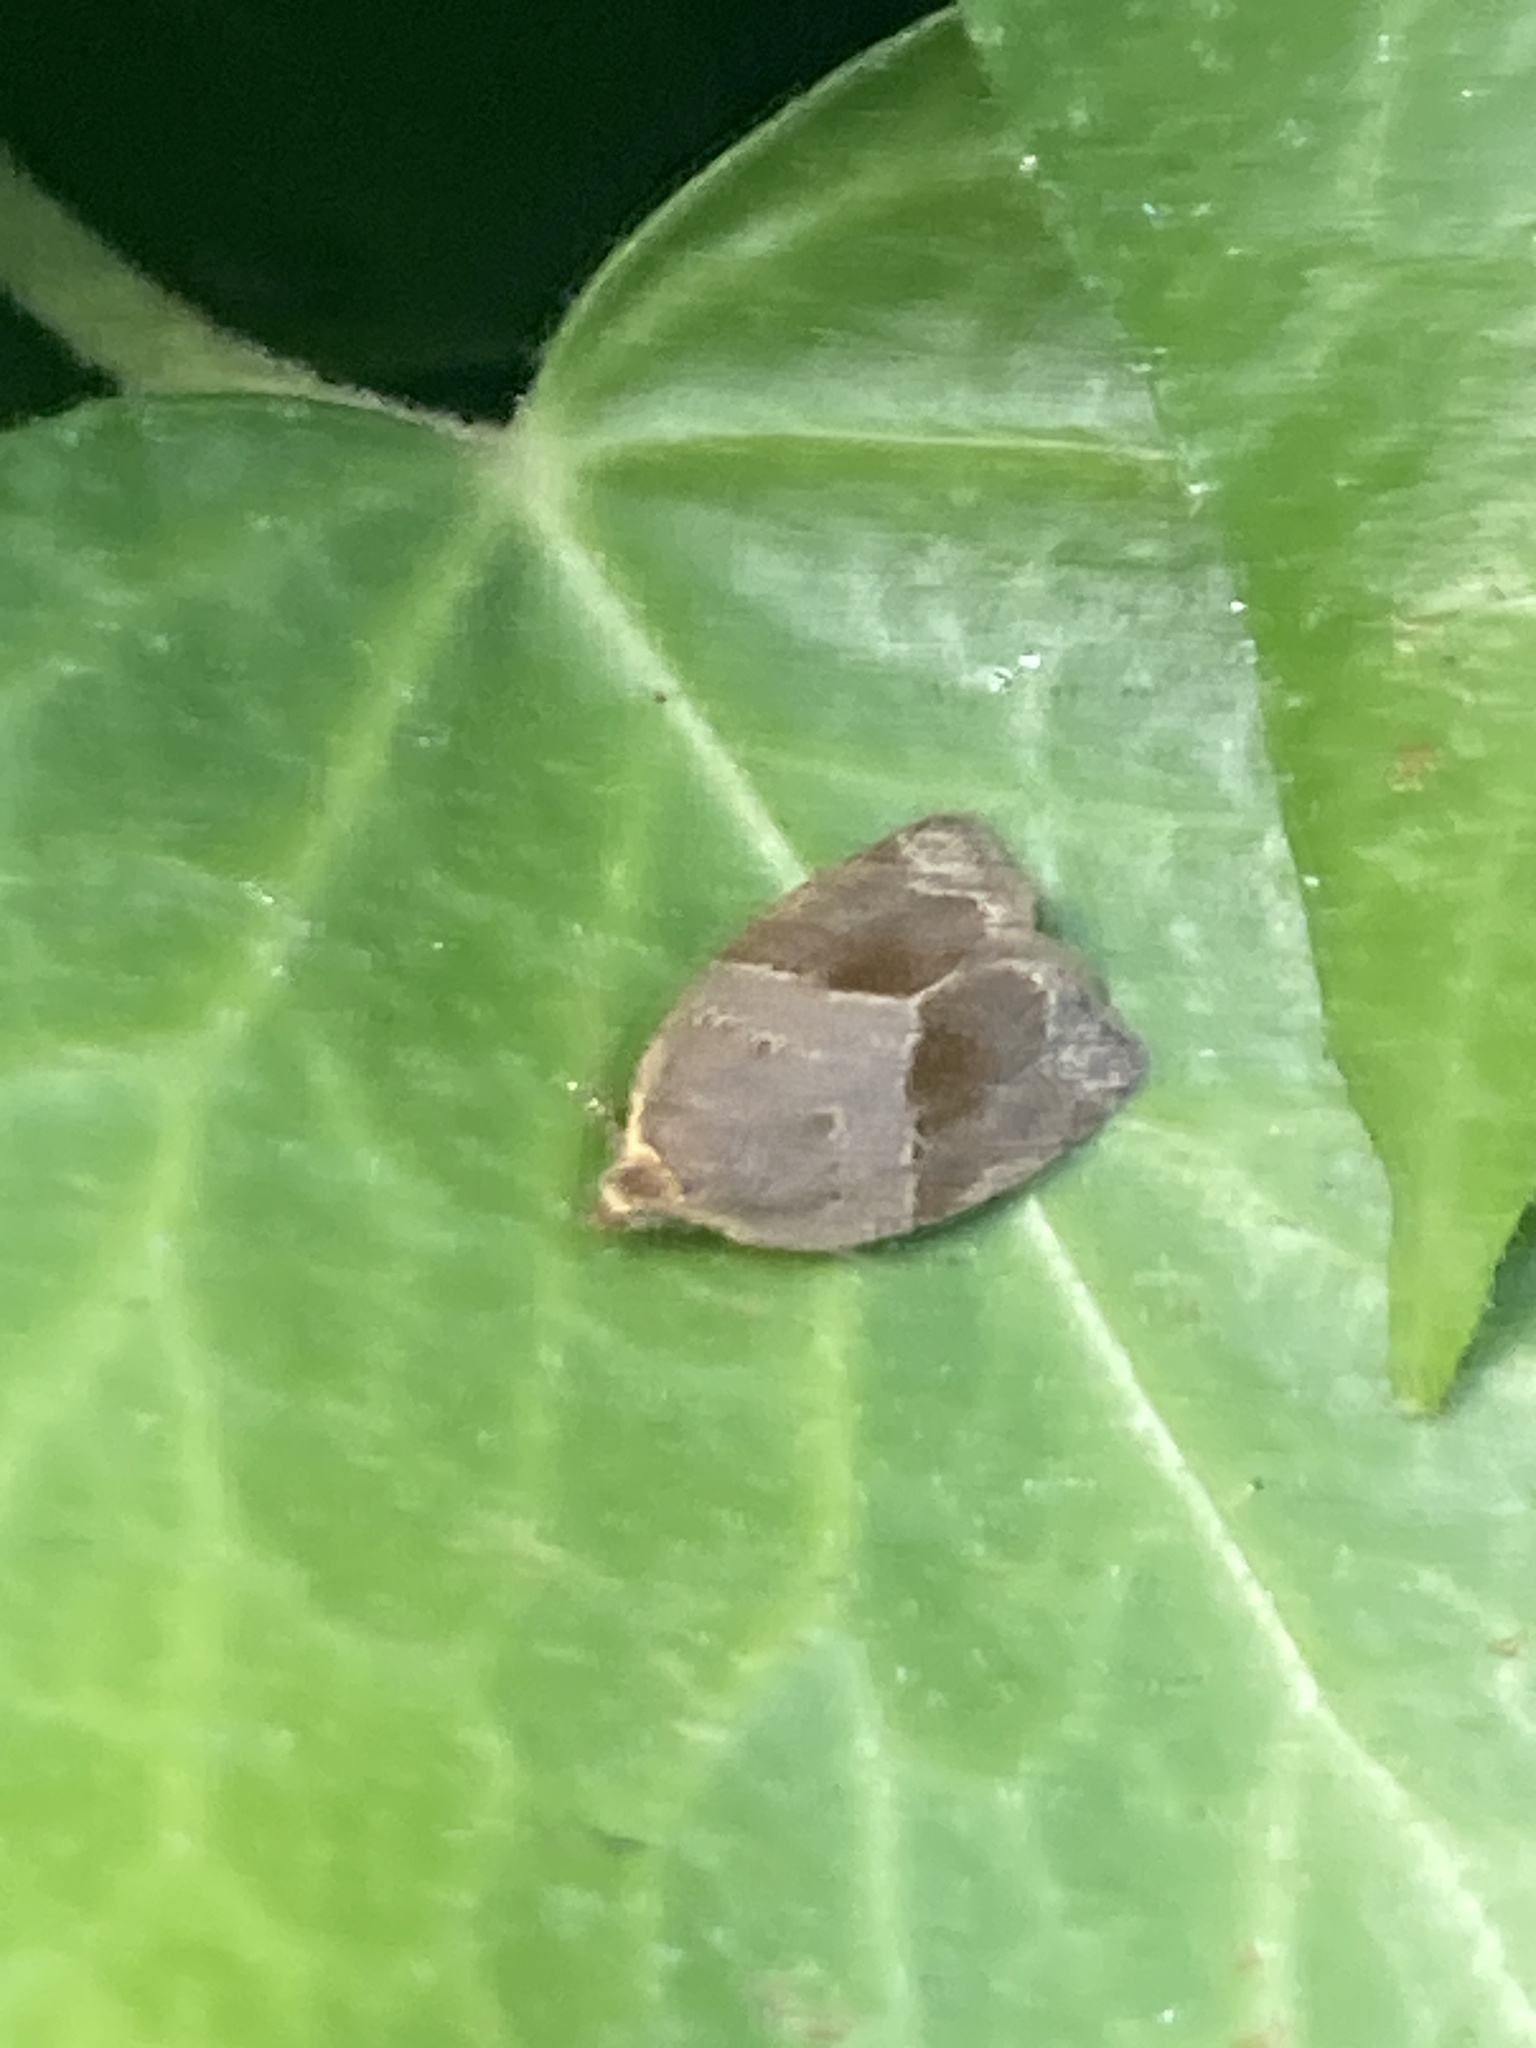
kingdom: Animalia
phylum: Arthropoda
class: Insecta
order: Lepidoptera
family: Tortricidae
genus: Clepsis
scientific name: Clepsis dumicolana
